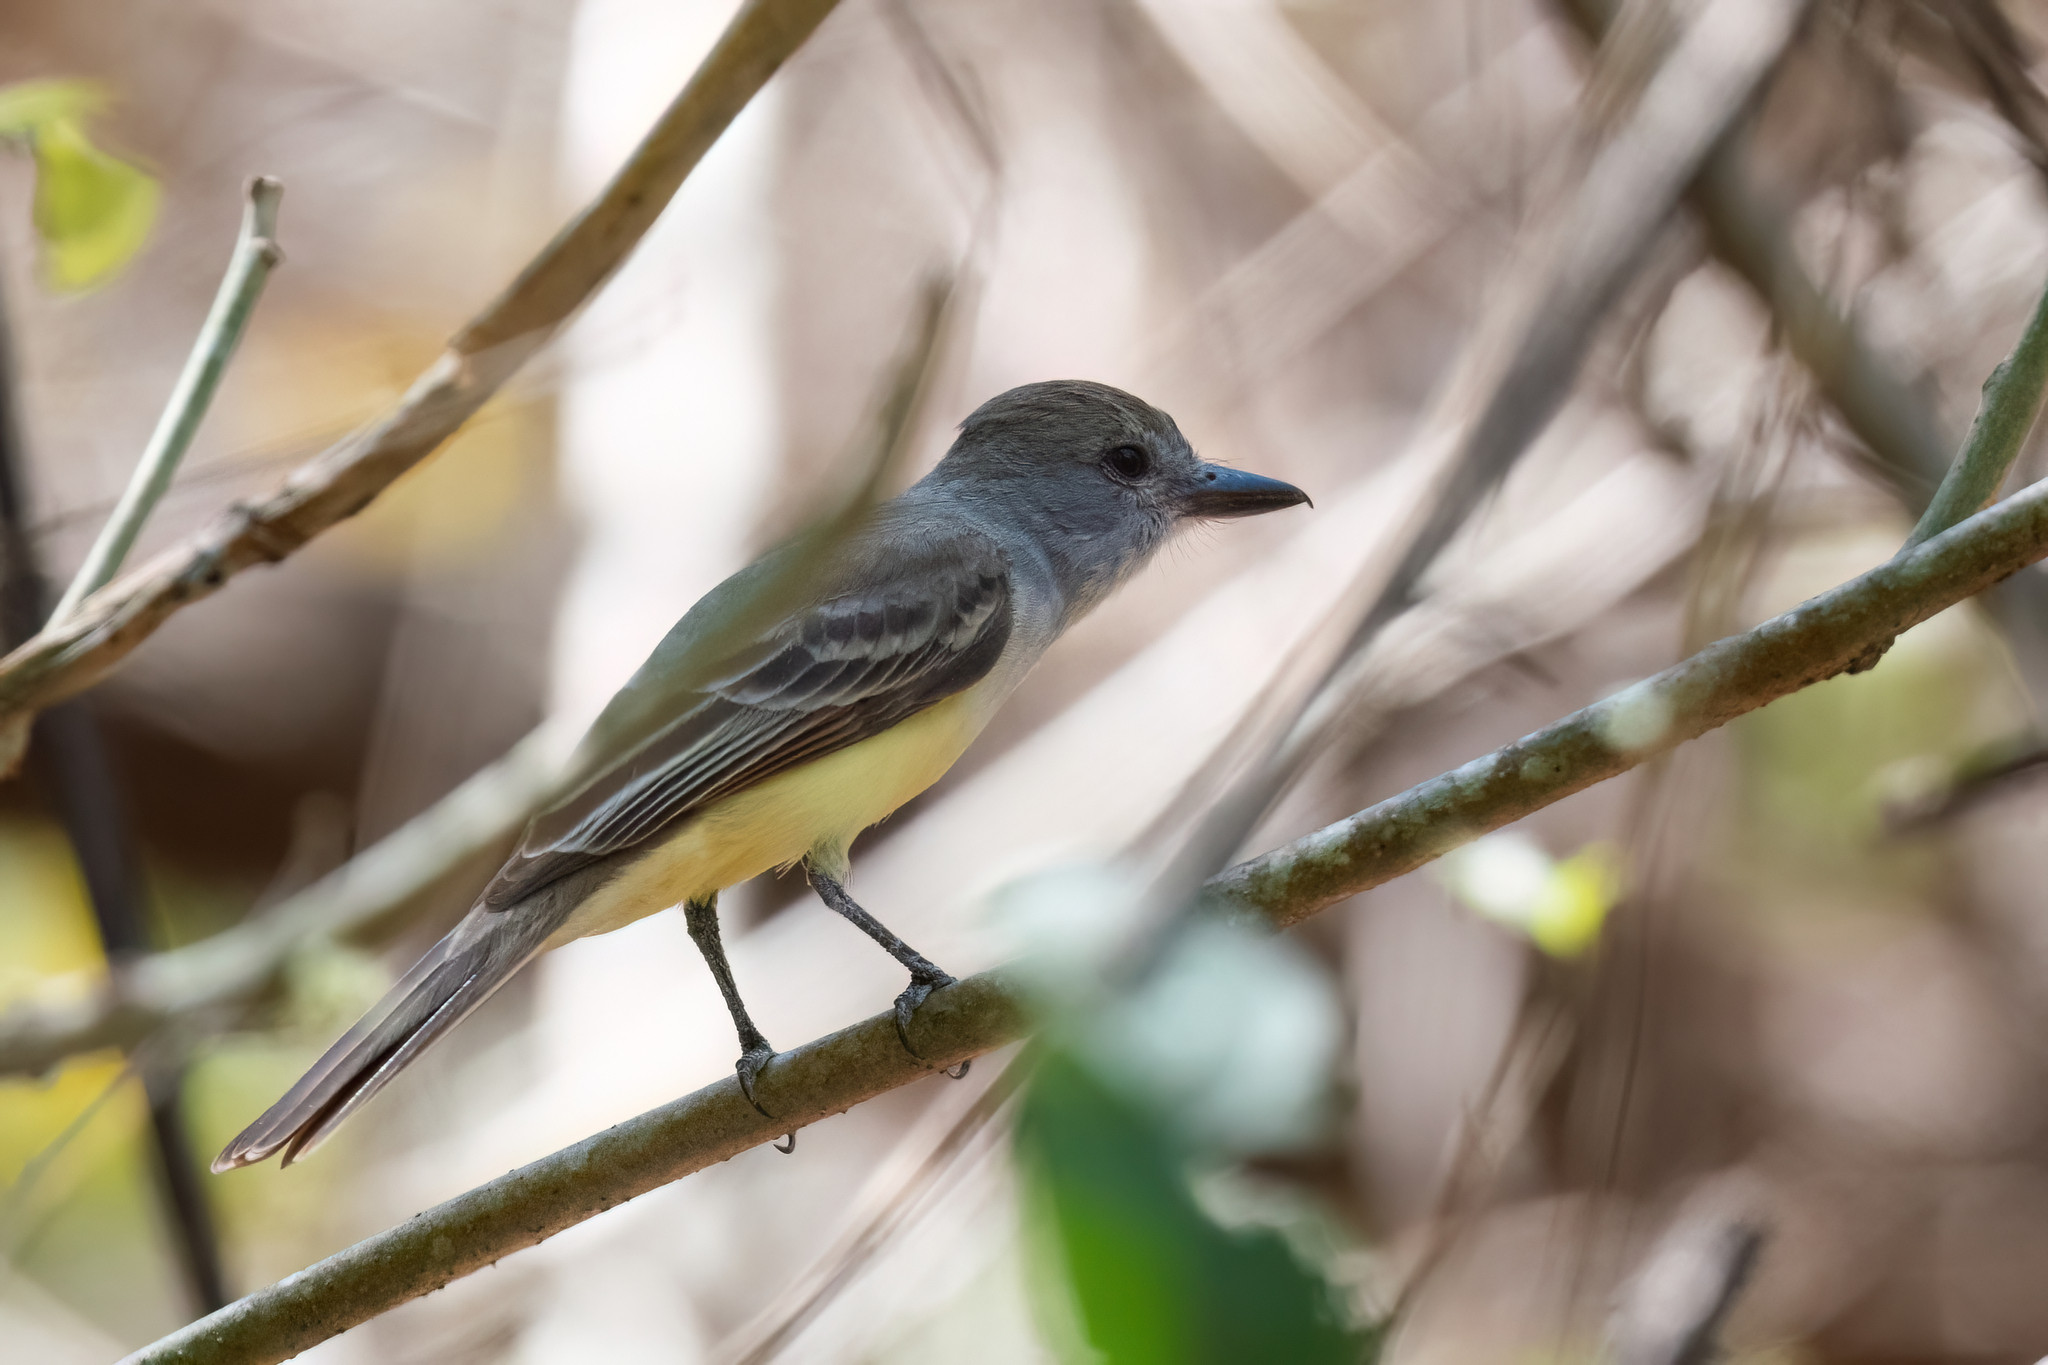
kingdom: Animalia
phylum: Chordata
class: Aves
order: Passeriformes
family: Tyrannidae
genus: Myiarchus
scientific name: Myiarchus tyrannulus
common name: Brown-crested flycatcher
